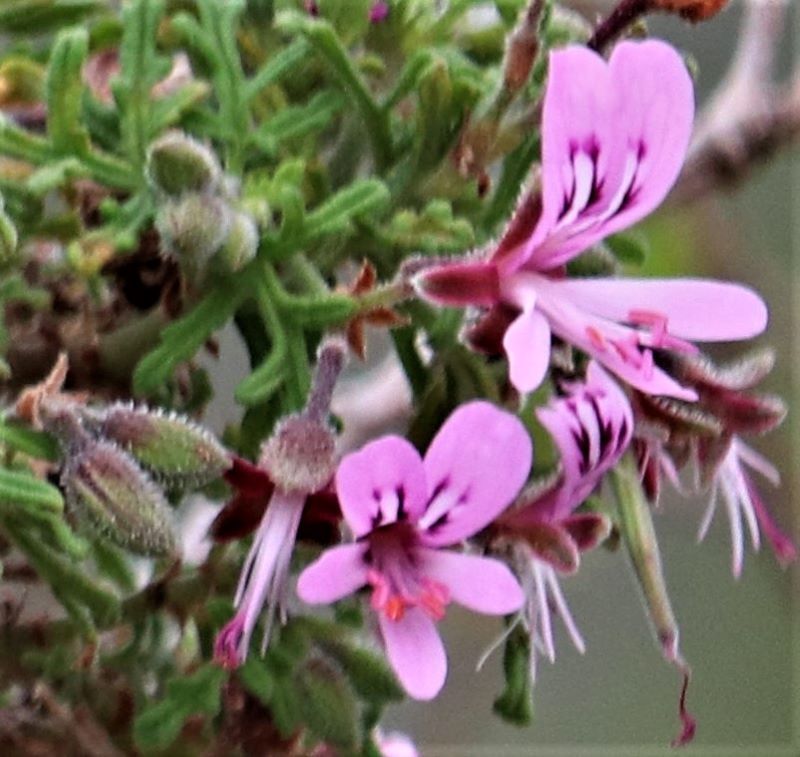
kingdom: Plantae
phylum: Tracheophyta
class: Magnoliopsida
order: Geraniales
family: Geraniaceae
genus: Pelargonium
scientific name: Pelargonium radens
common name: Rasp-leaf pelargonium
